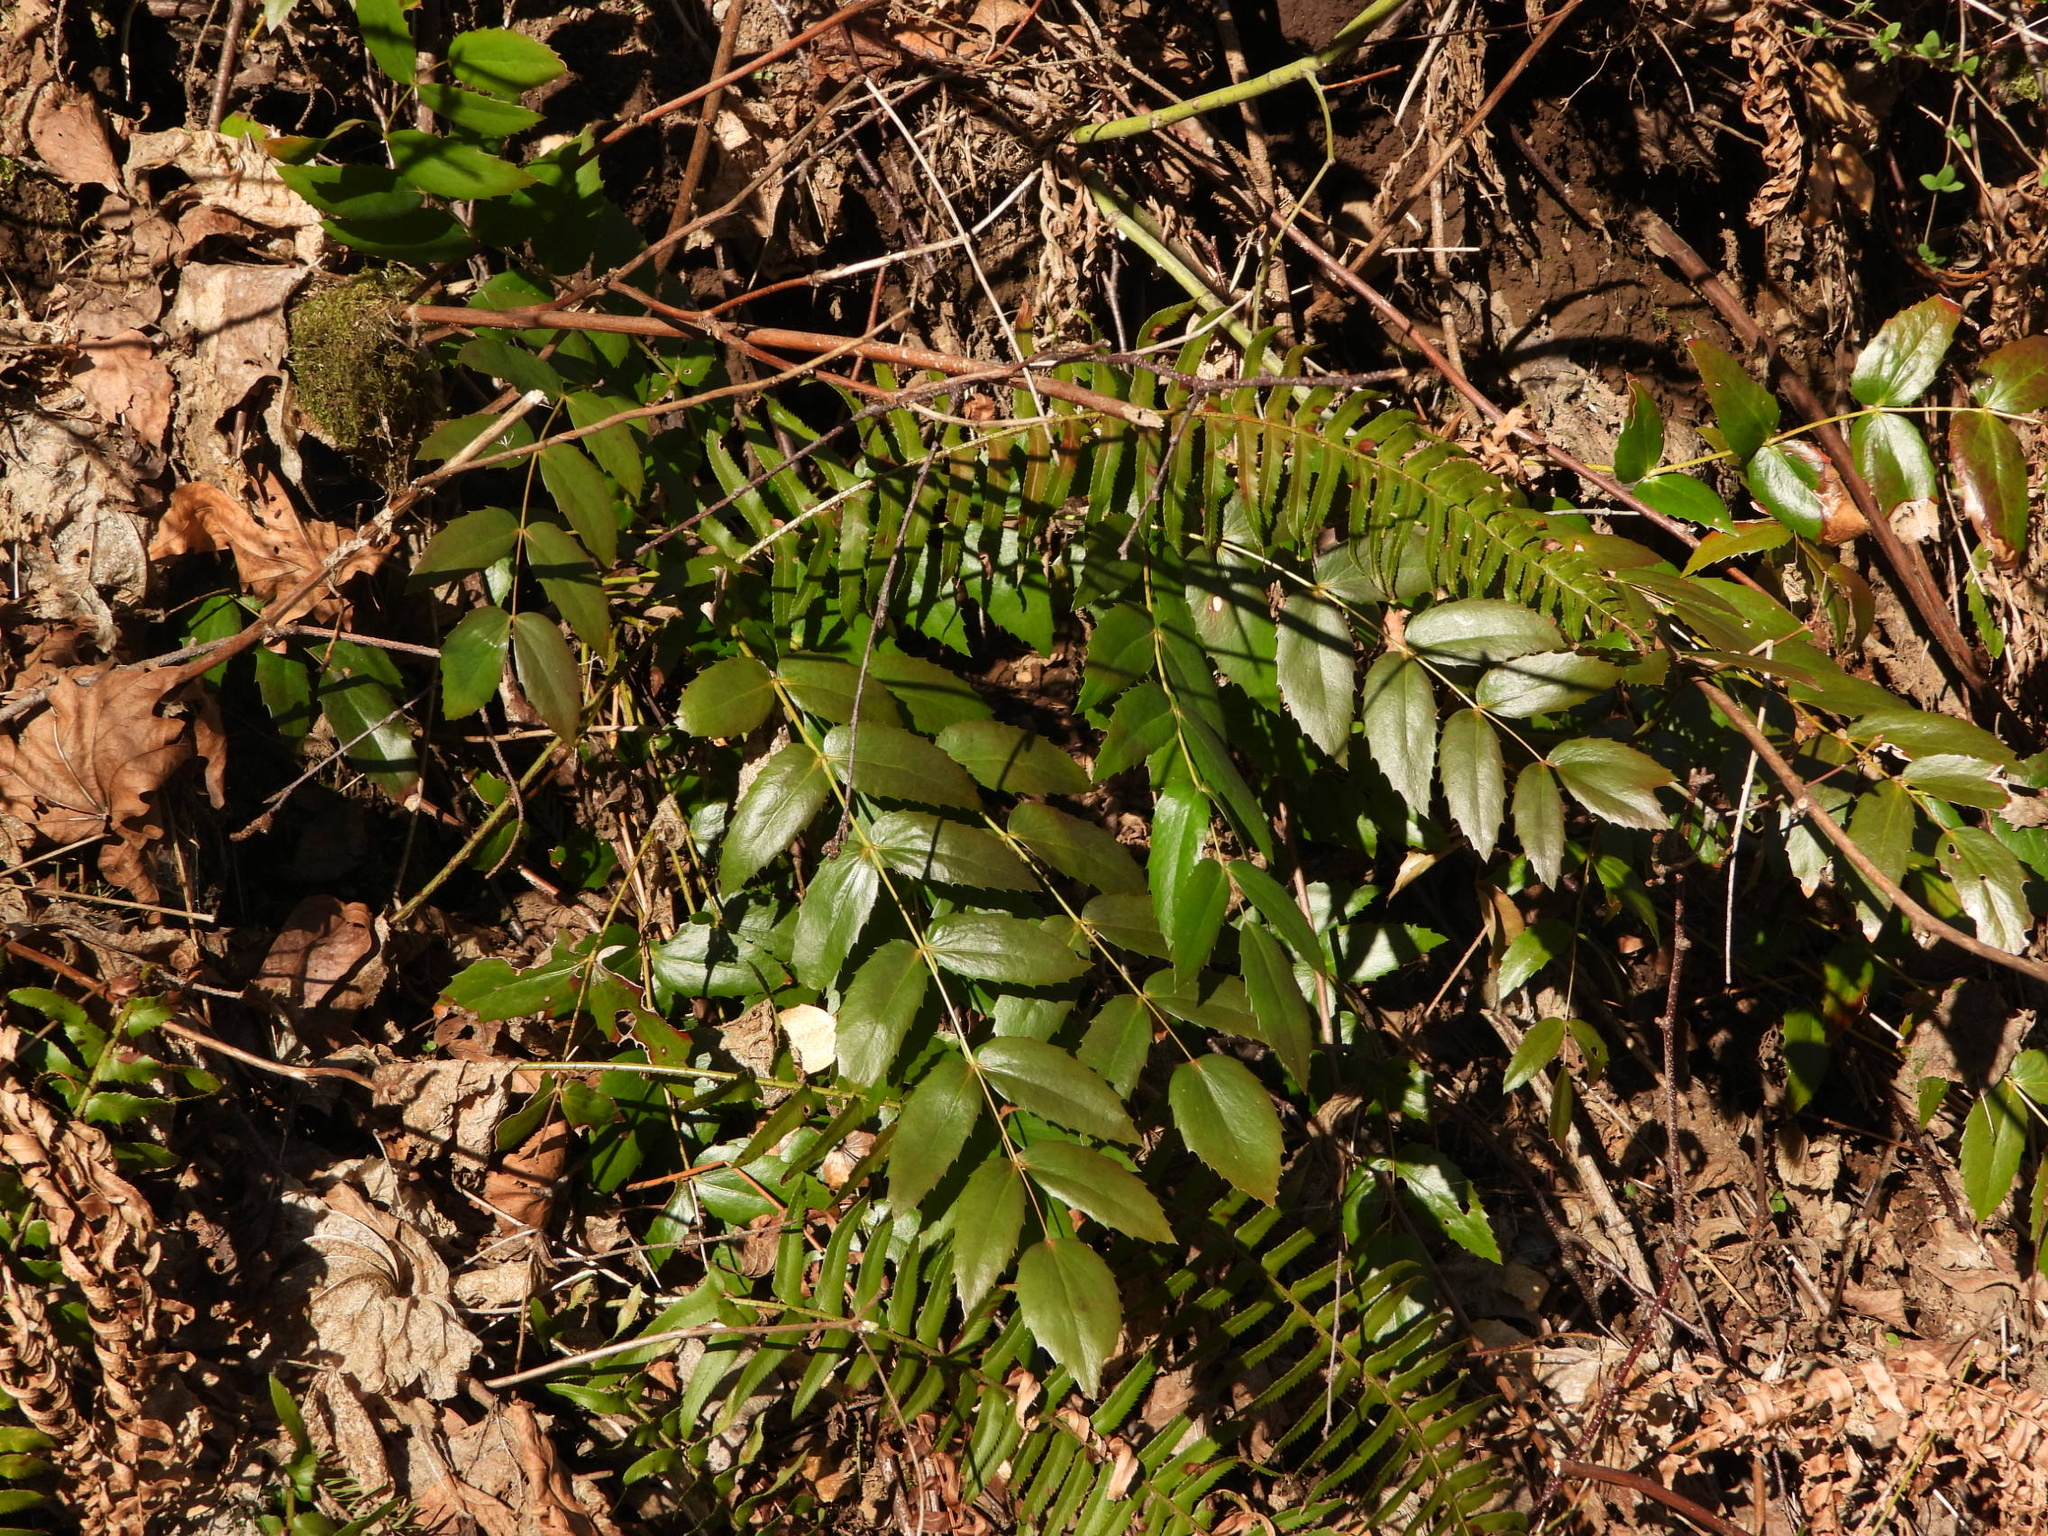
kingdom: Plantae
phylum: Tracheophyta
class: Magnoliopsida
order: Ranunculales
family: Berberidaceae
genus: Mahonia
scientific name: Mahonia nervosa
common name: Cascade oregon-grape
